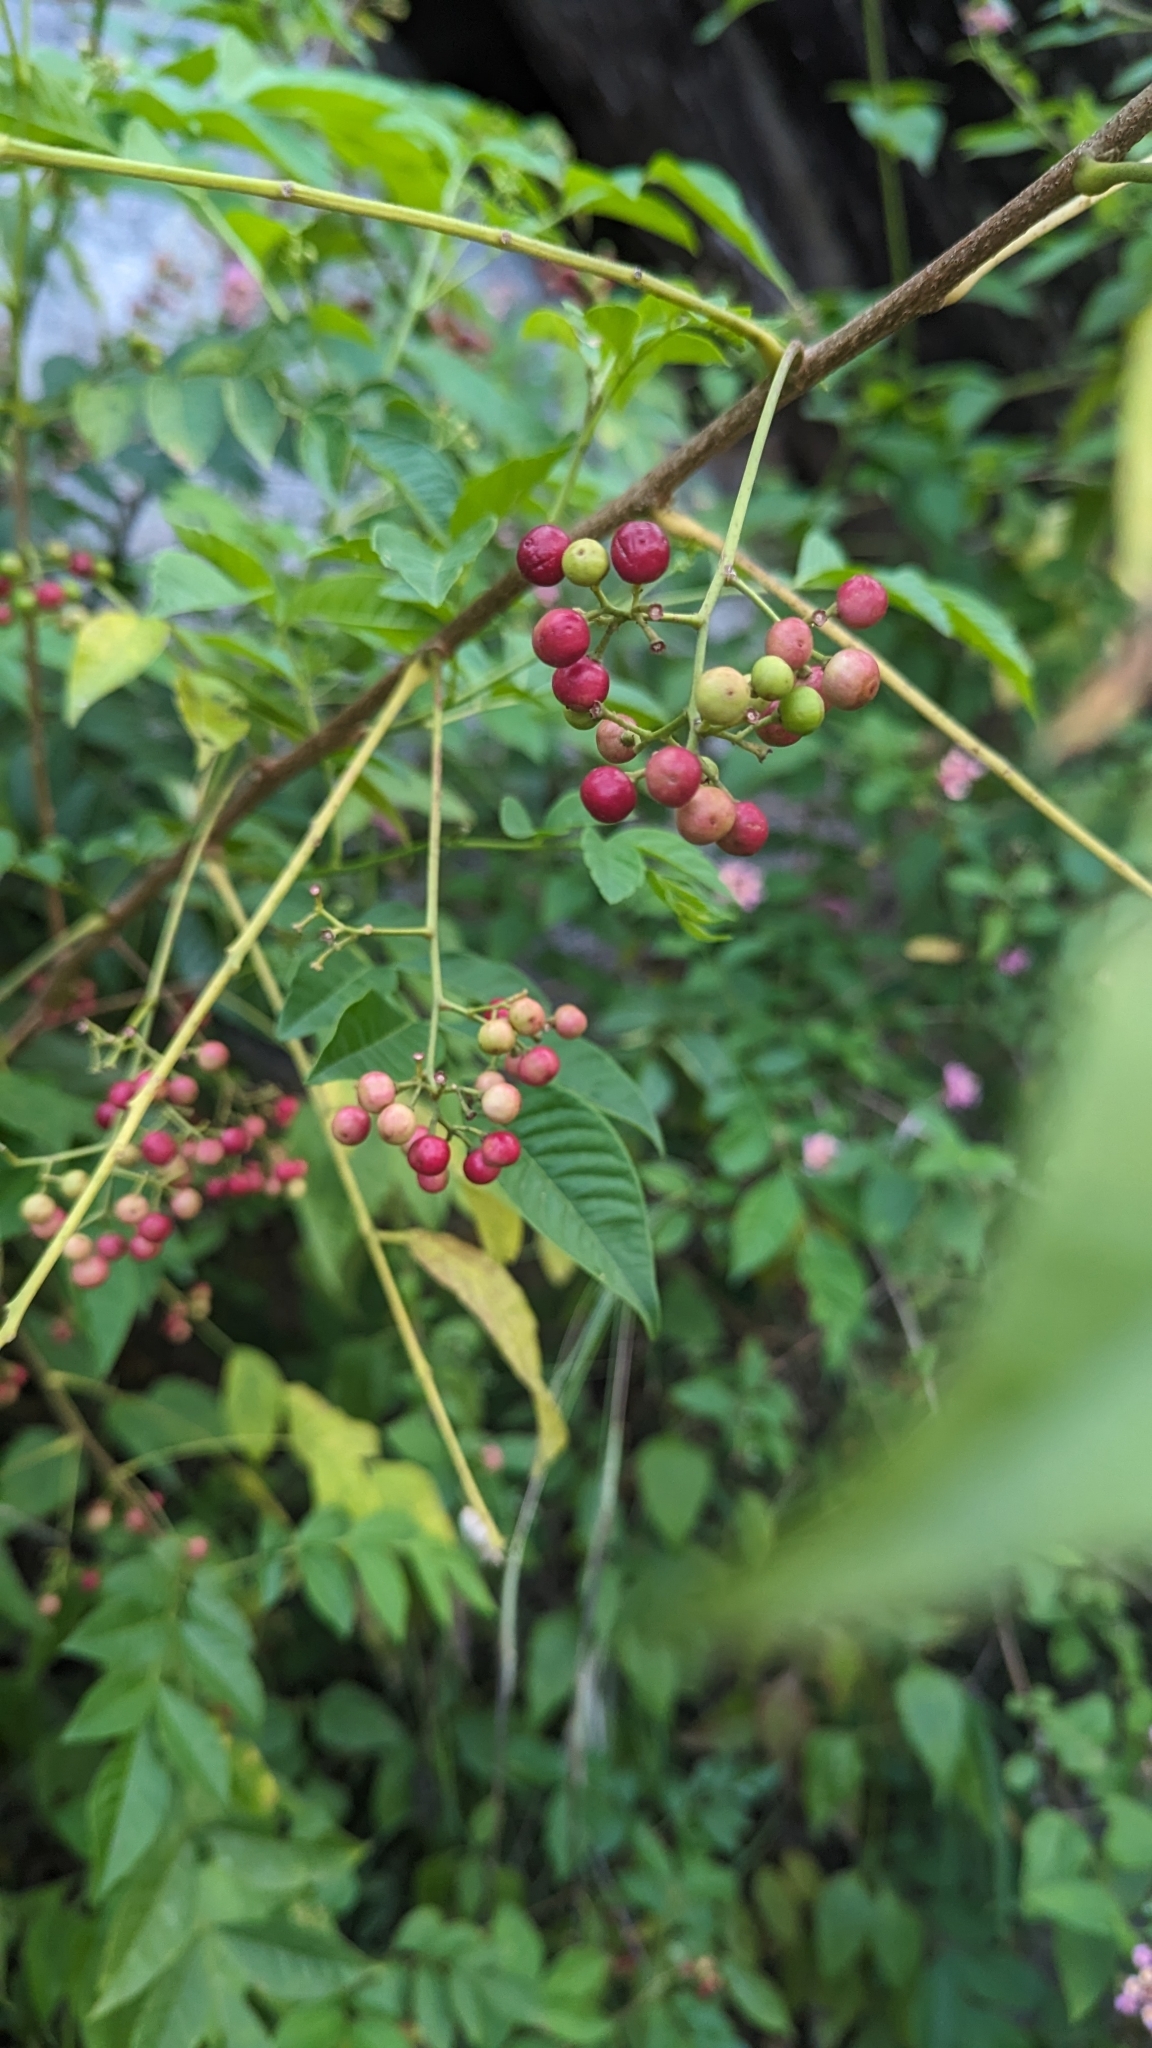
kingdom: Plantae
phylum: Tracheophyta
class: Magnoliopsida
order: Sapindales
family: Meliaceae
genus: Cipadessa
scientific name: Cipadessa baccifera
